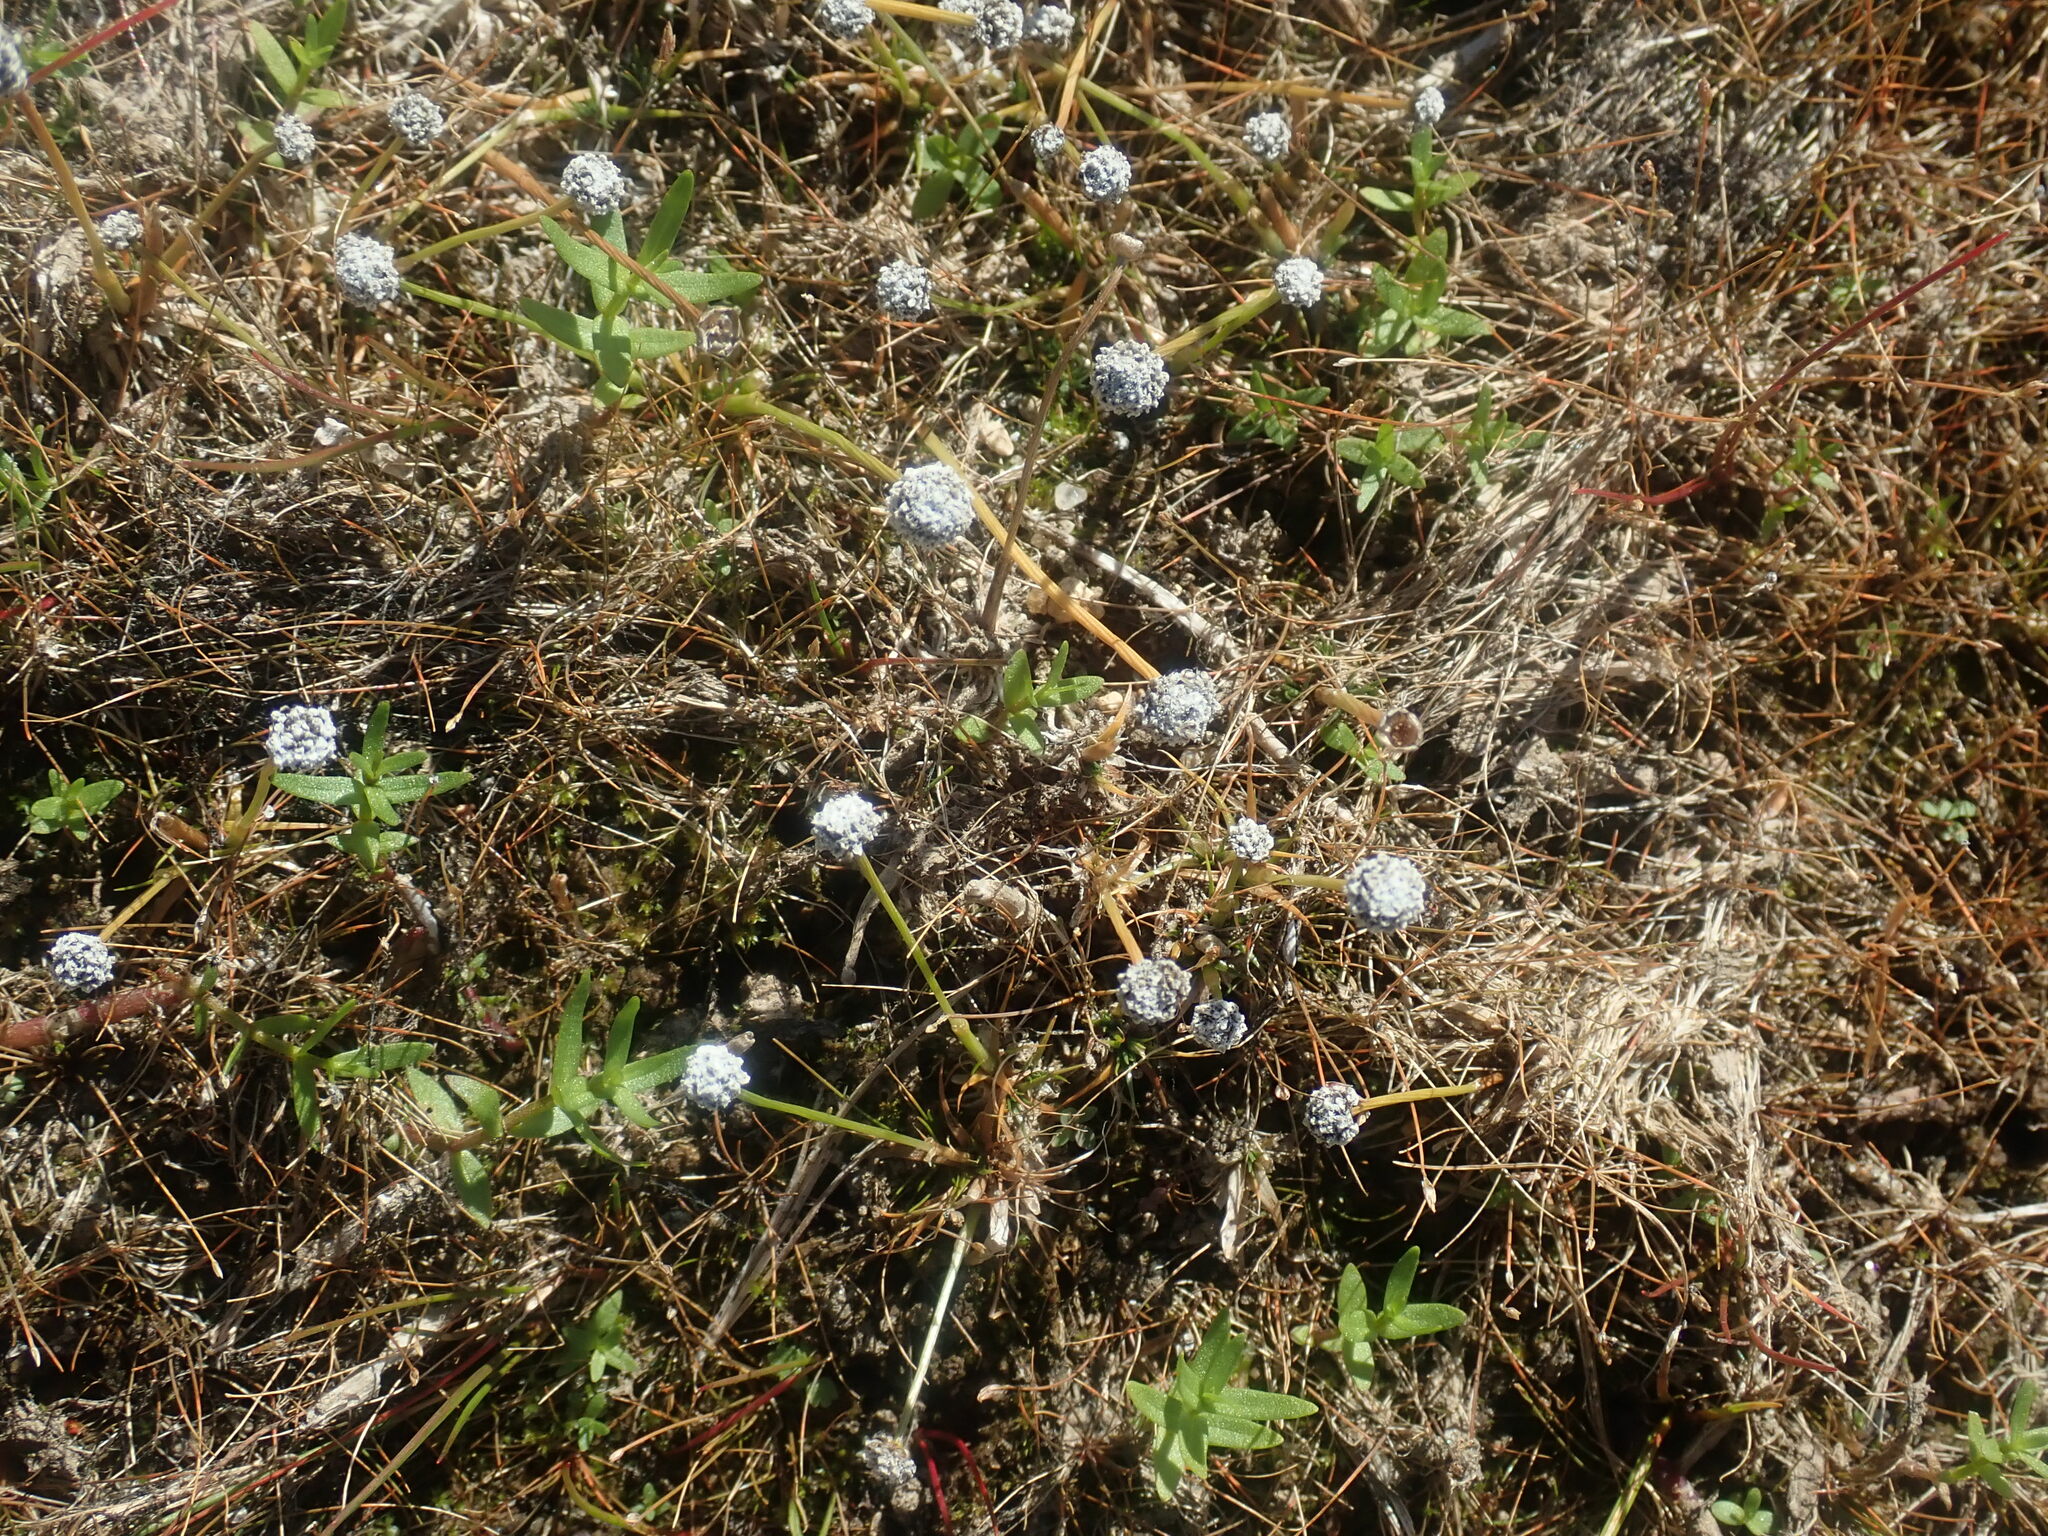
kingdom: Plantae
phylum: Tracheophyta
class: Liliopsida
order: Poales
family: Eriocaulaceae
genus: Eriocaulon
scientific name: Eriocaulon aquaticum
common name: Pipewort
